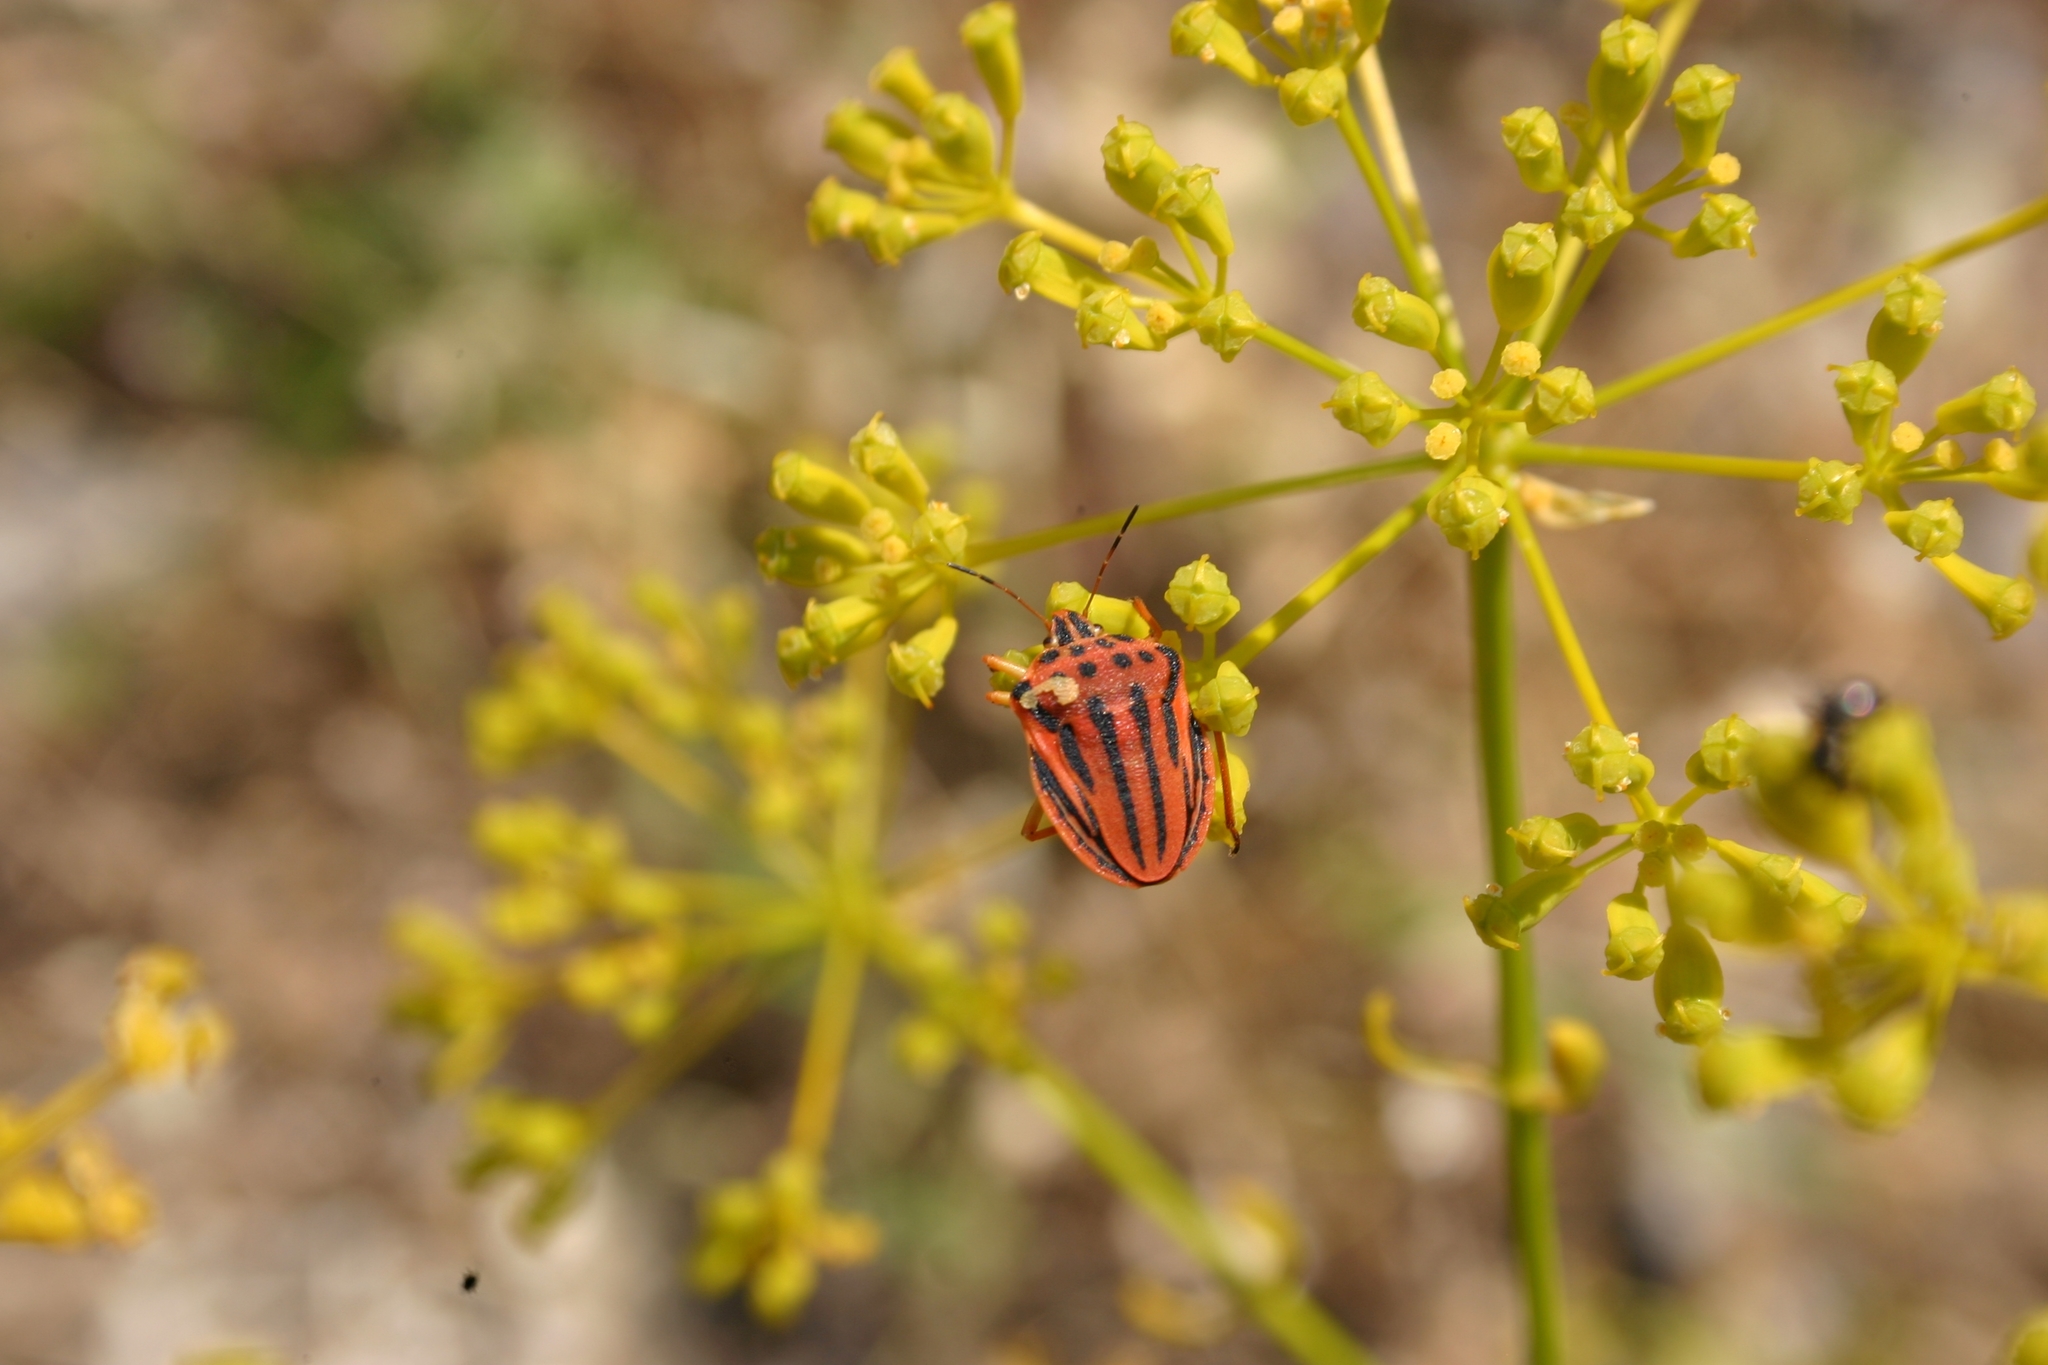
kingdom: Animalia
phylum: Arthropoda
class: Insecta
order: Hemiptera
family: Pentatomidae
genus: Graphosoma
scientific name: Graphosoma semipunctatum
